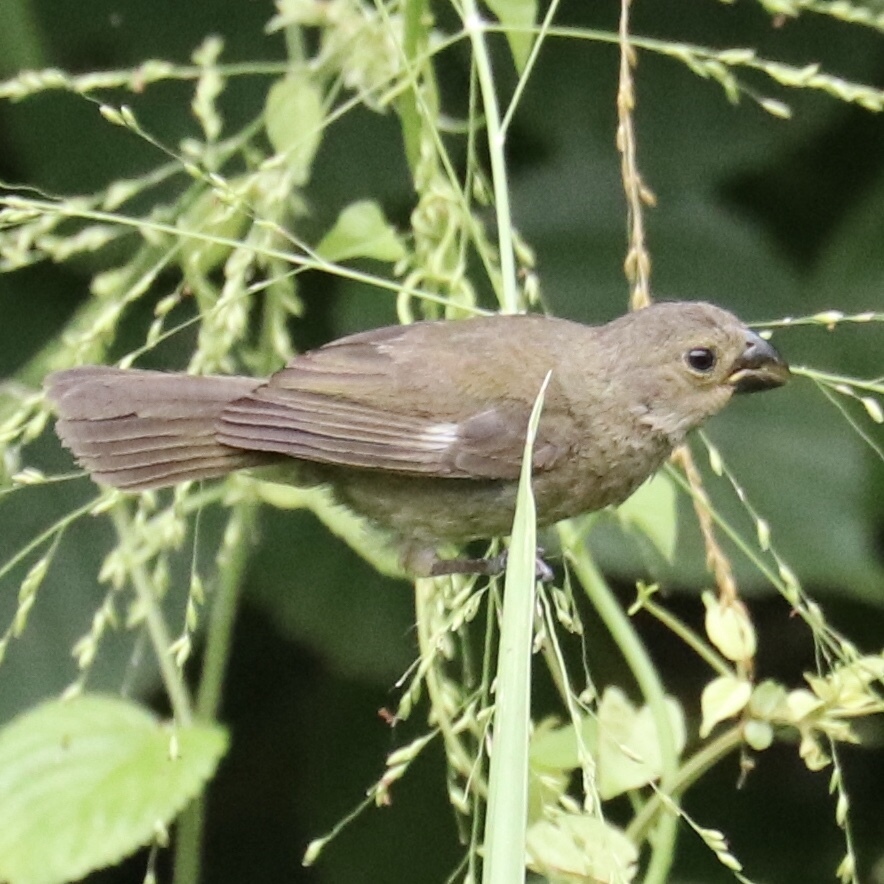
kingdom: Animalia
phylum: Chordata
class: Aves
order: Passeriformes
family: Thraupidae
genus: Sporophila
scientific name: Sporophila corvina
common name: Variable seedeater
